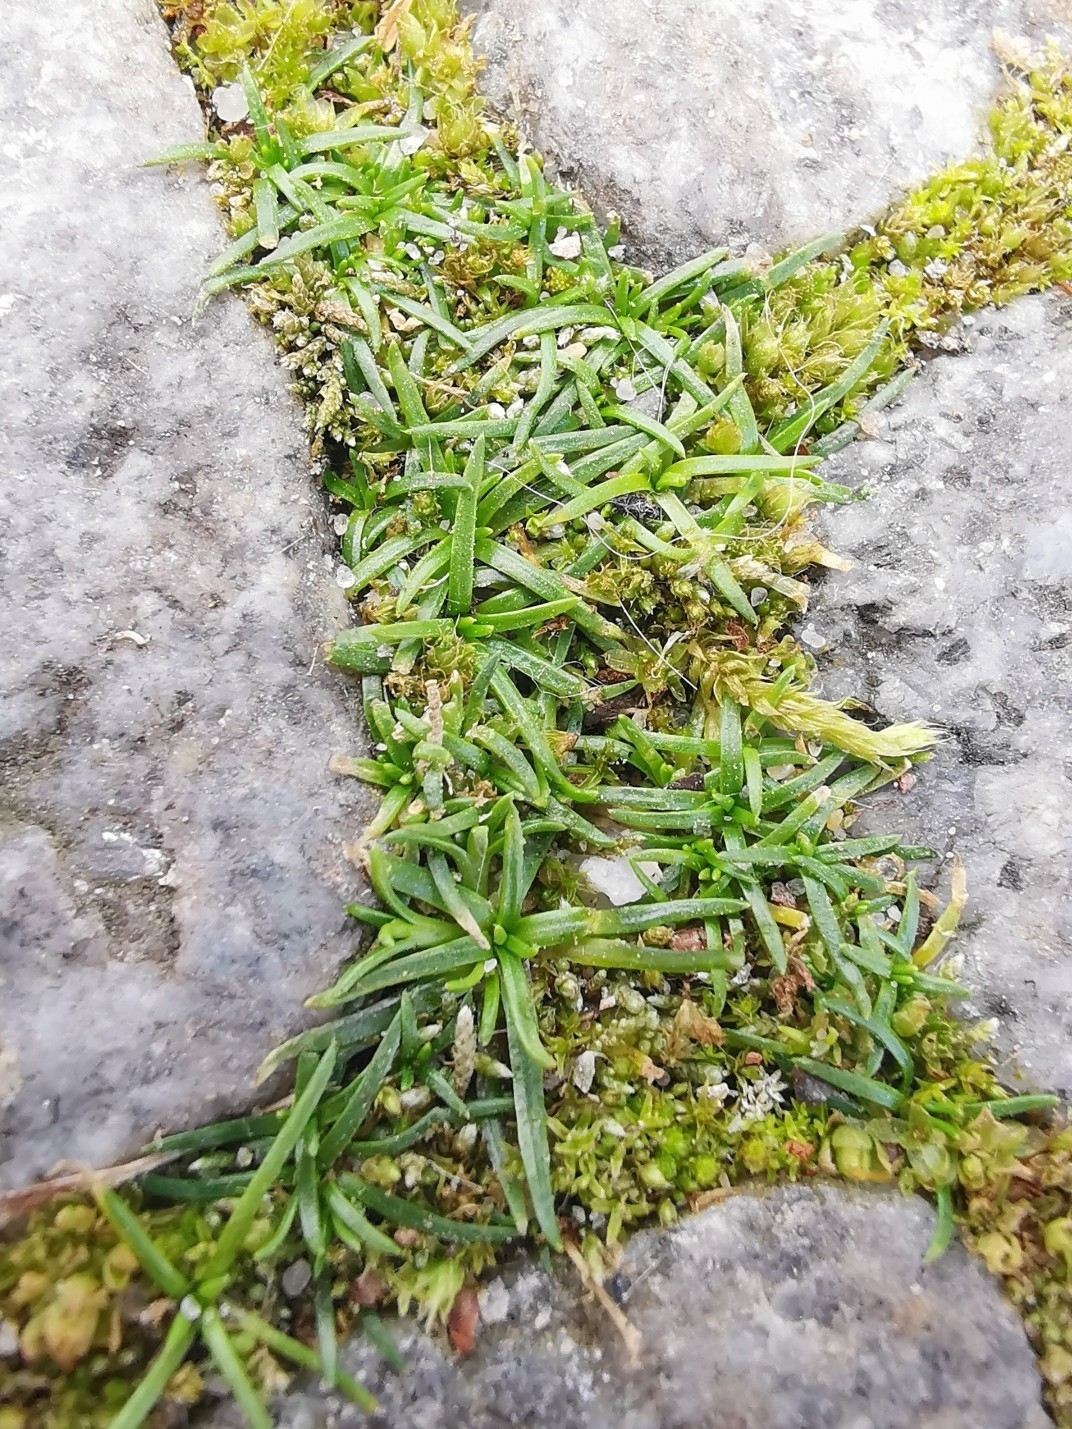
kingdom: Plantae
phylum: Tracheophyta
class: Magnoliopsida
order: Caryophyllales
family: Caryophyllaceae
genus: Sagina
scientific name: Sagina procumbens
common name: Procumbent pearlwort
